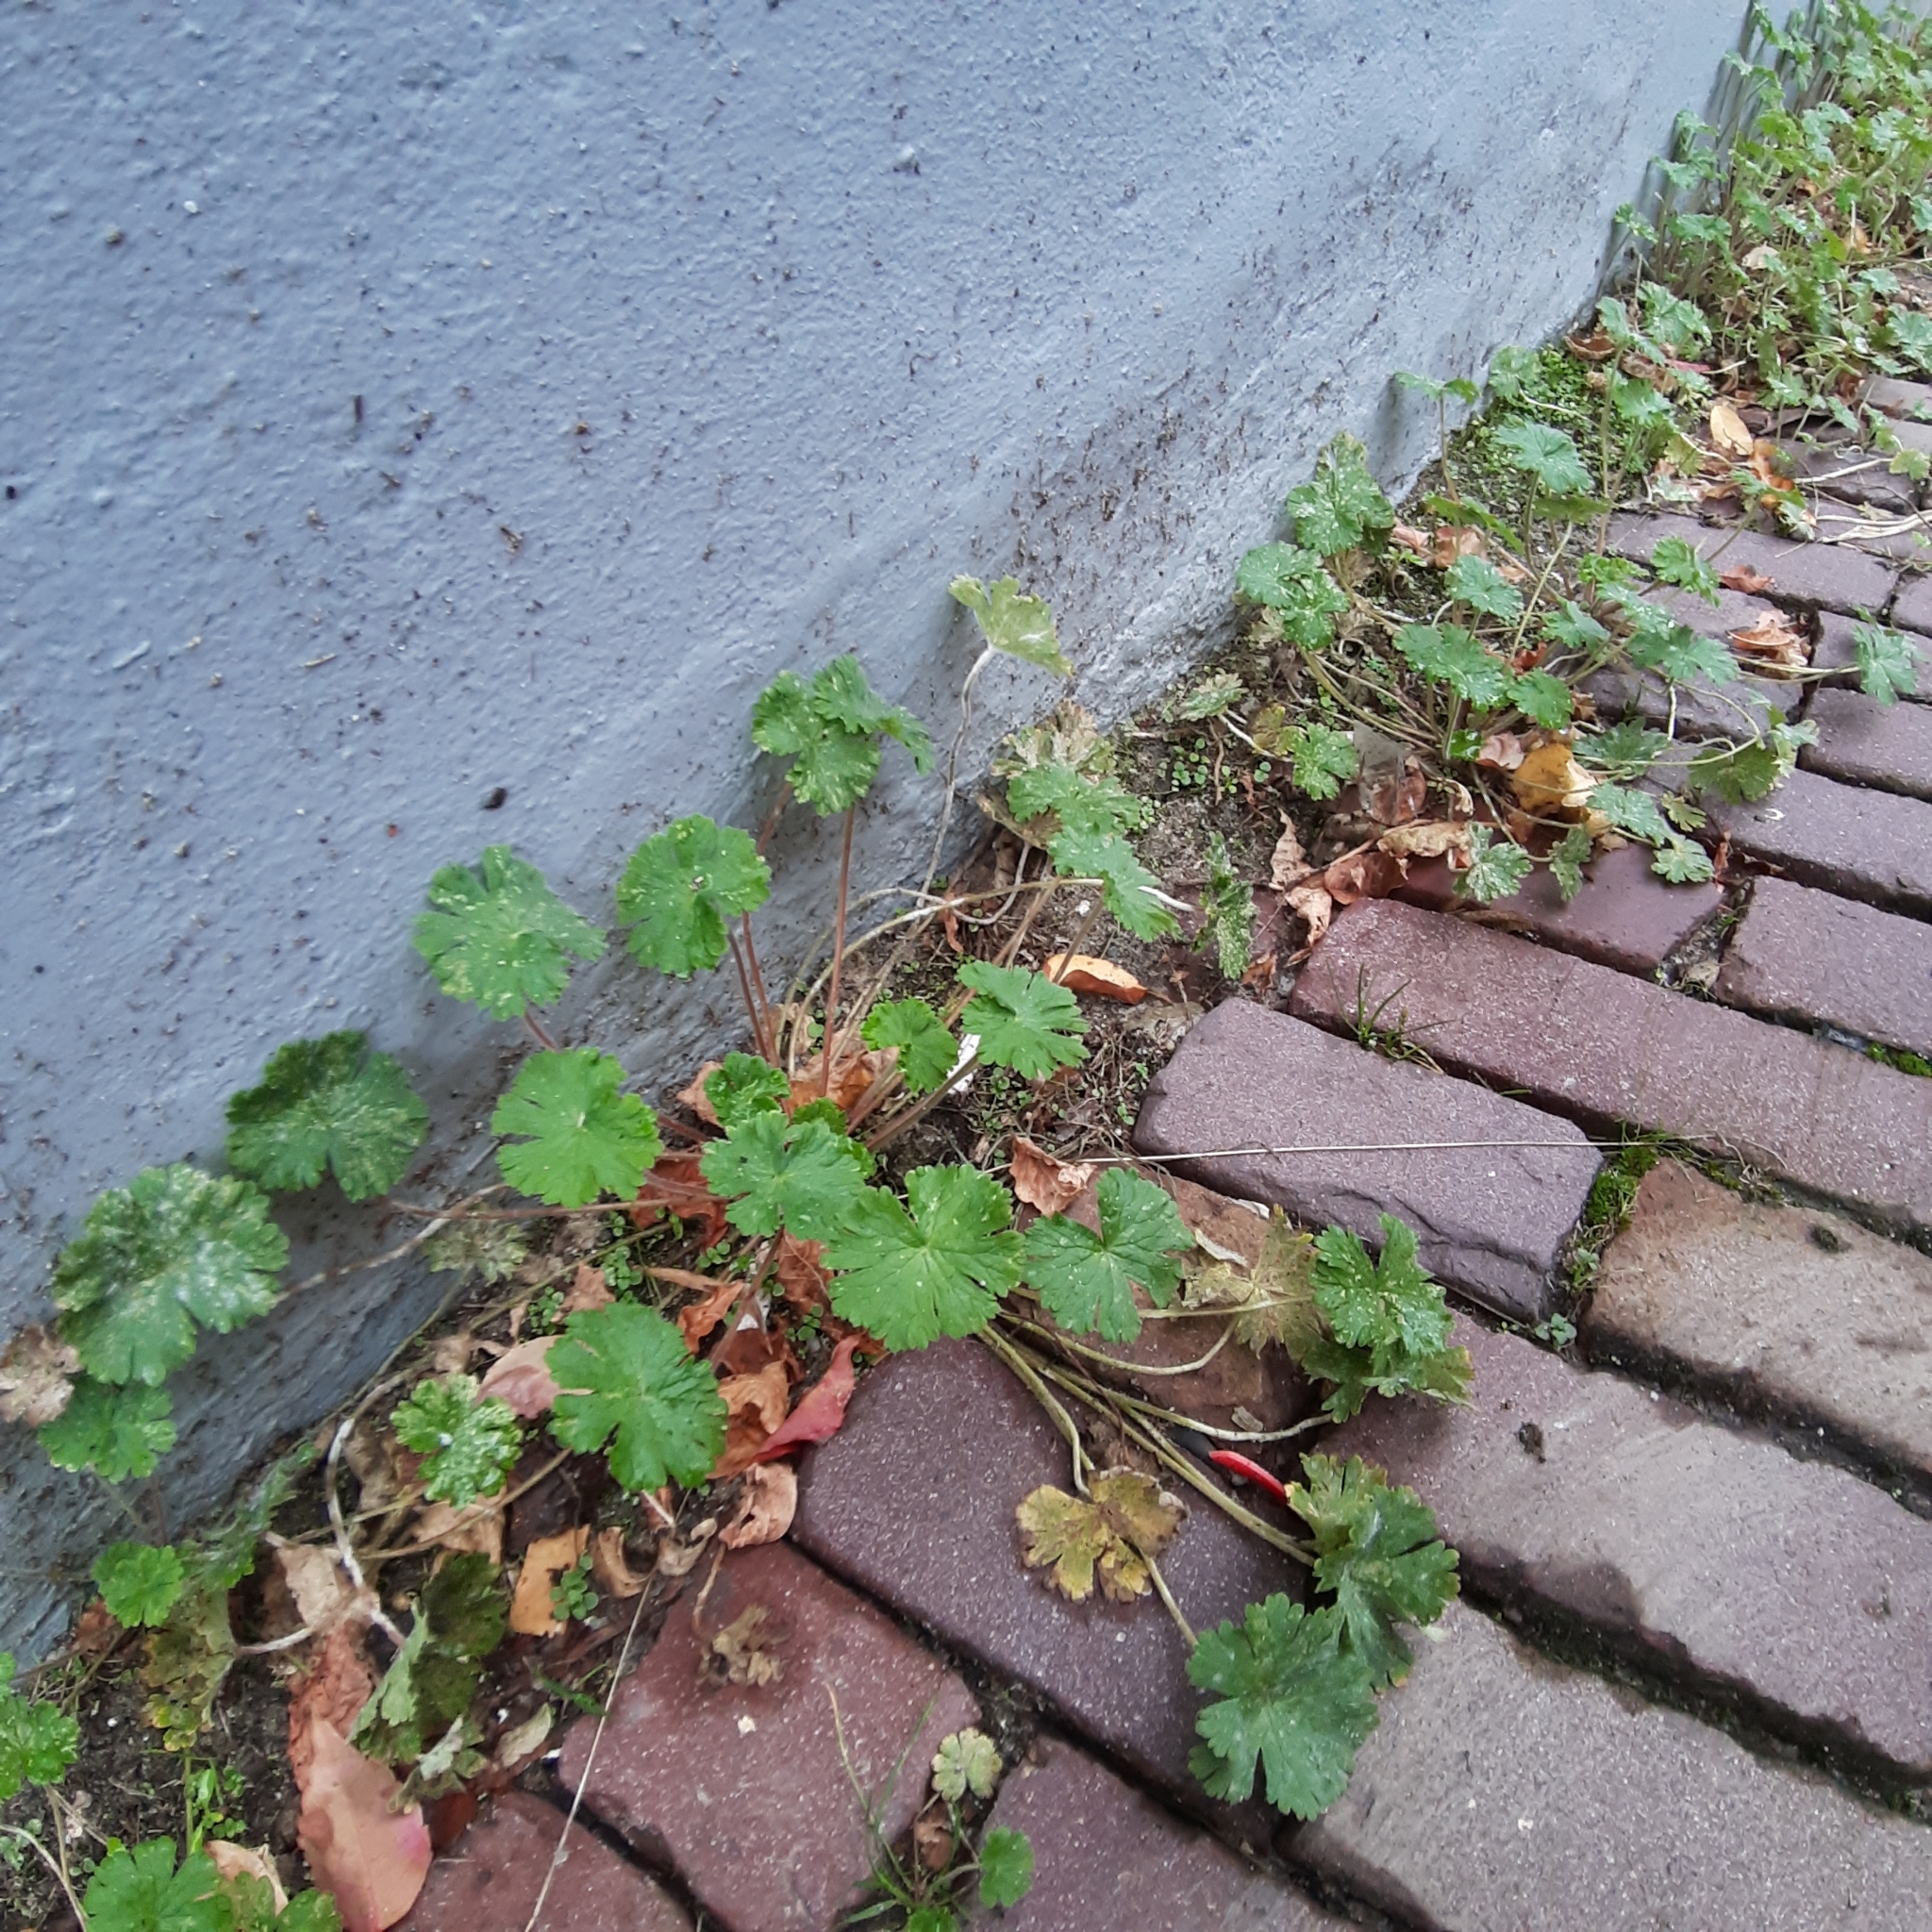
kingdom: Plantae
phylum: Tracheophyta
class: Magnoliopsida
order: Geraniales
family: Geraniaceae
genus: Geranium
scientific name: Geranium molle
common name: Dove's-foot crane's-bill
